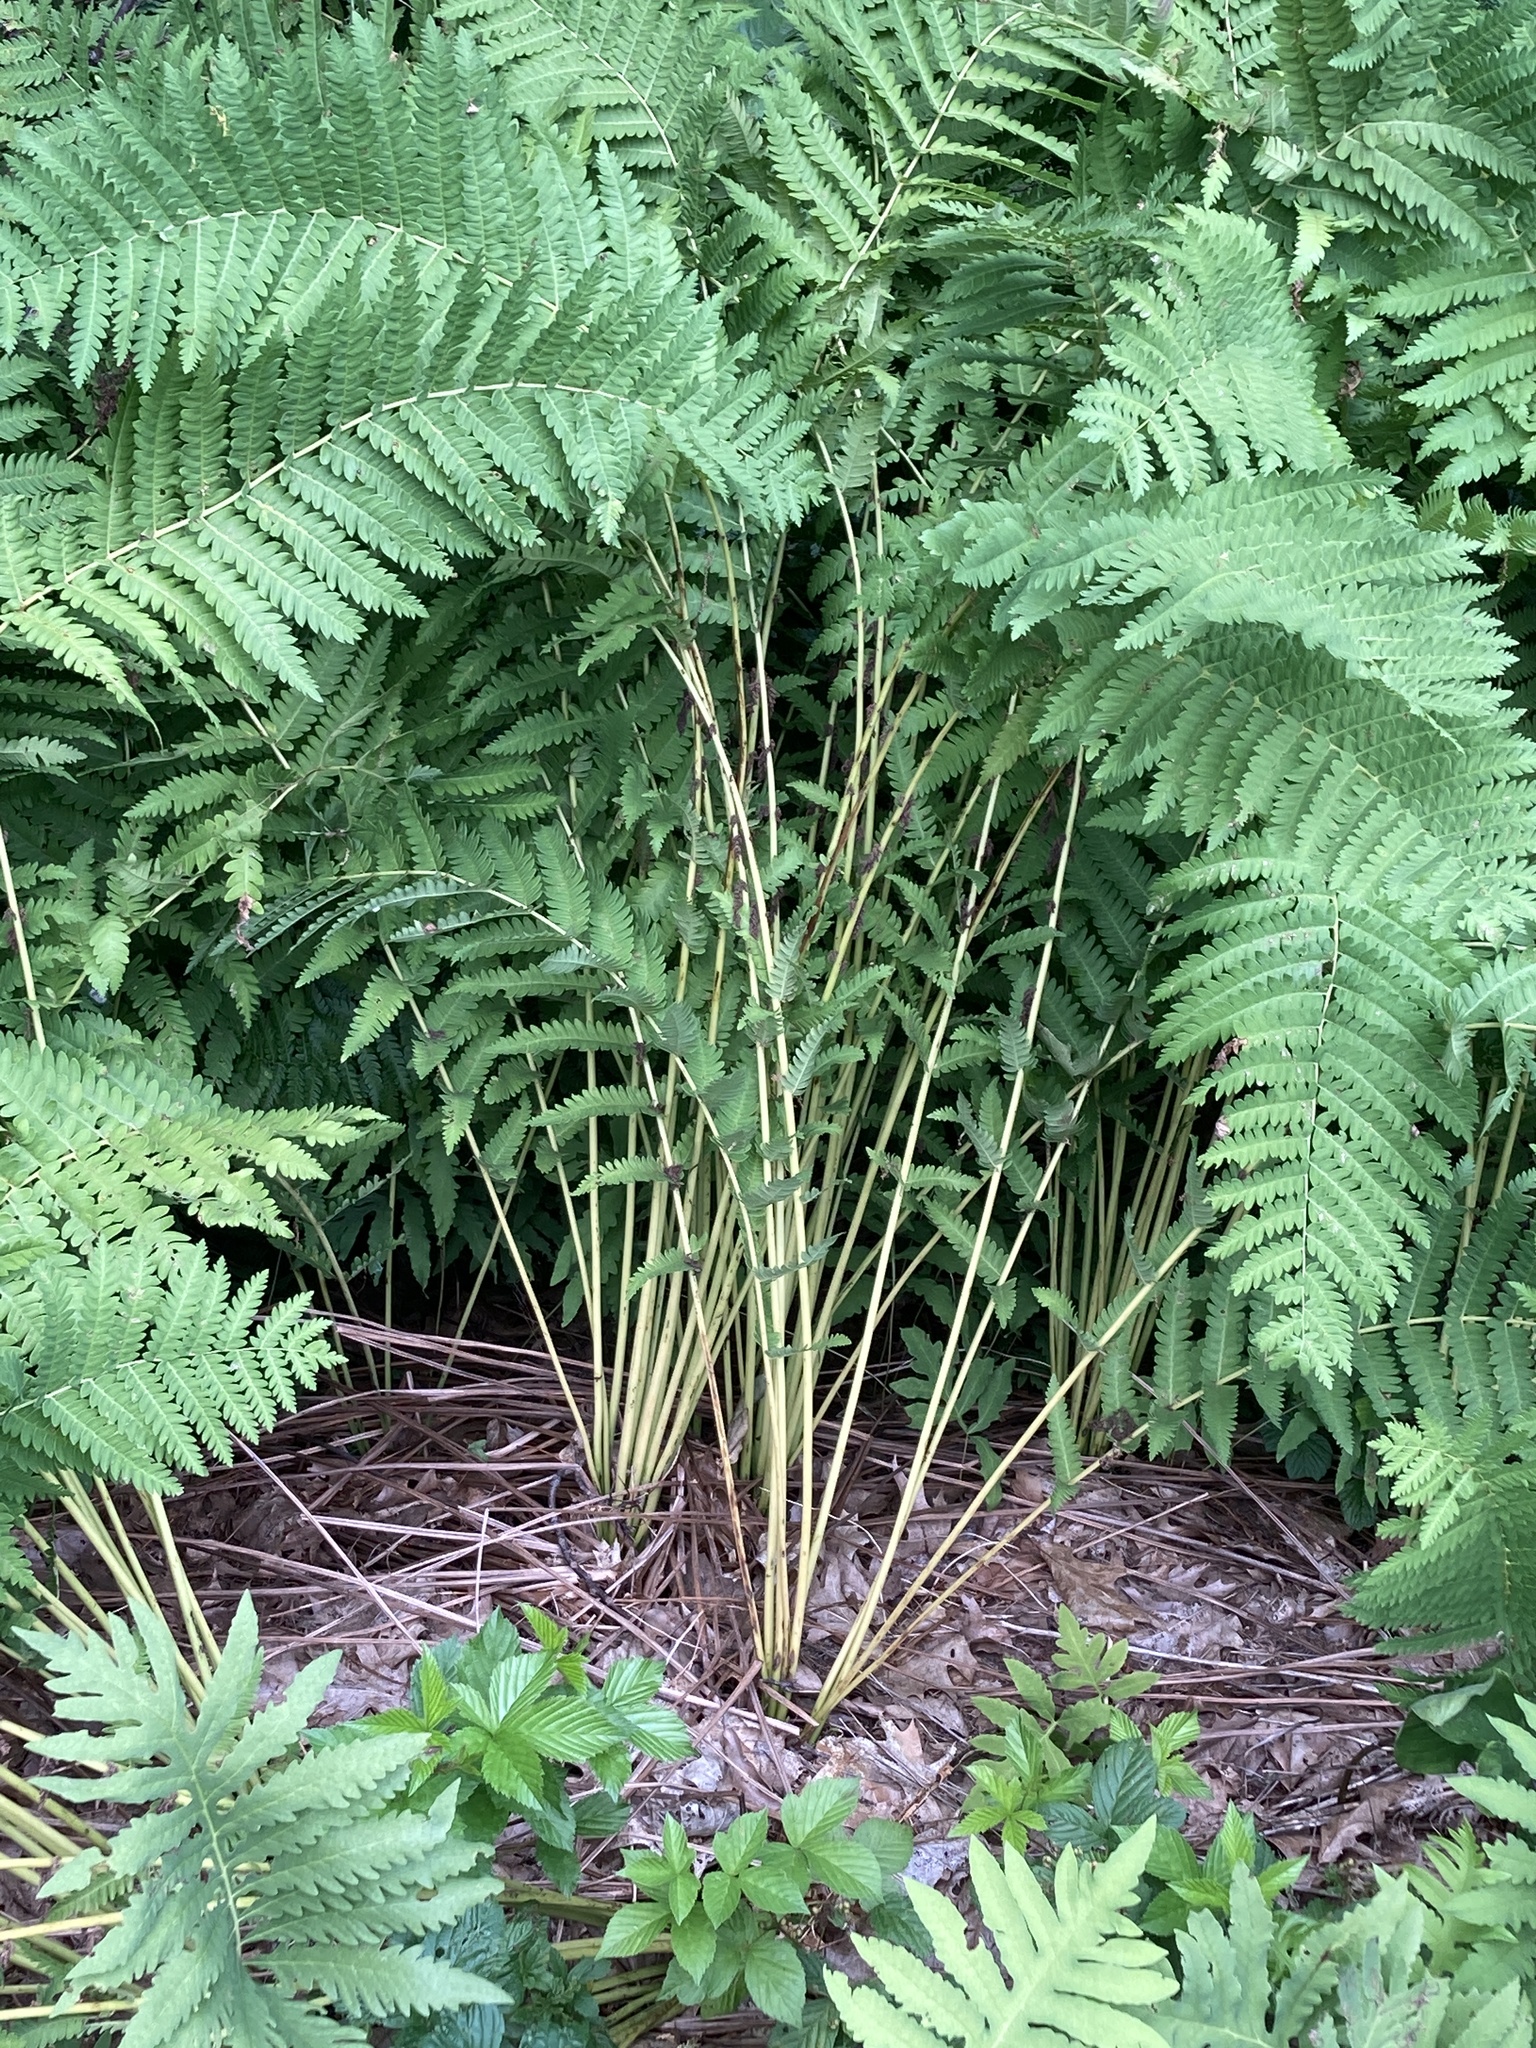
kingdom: Plantae
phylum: Tracheophyta
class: Polypodiopsida
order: Osmundales
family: Osmundaceae
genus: Claytosmunda
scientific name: Claytosmunda claytoniana
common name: Clayton's fern
